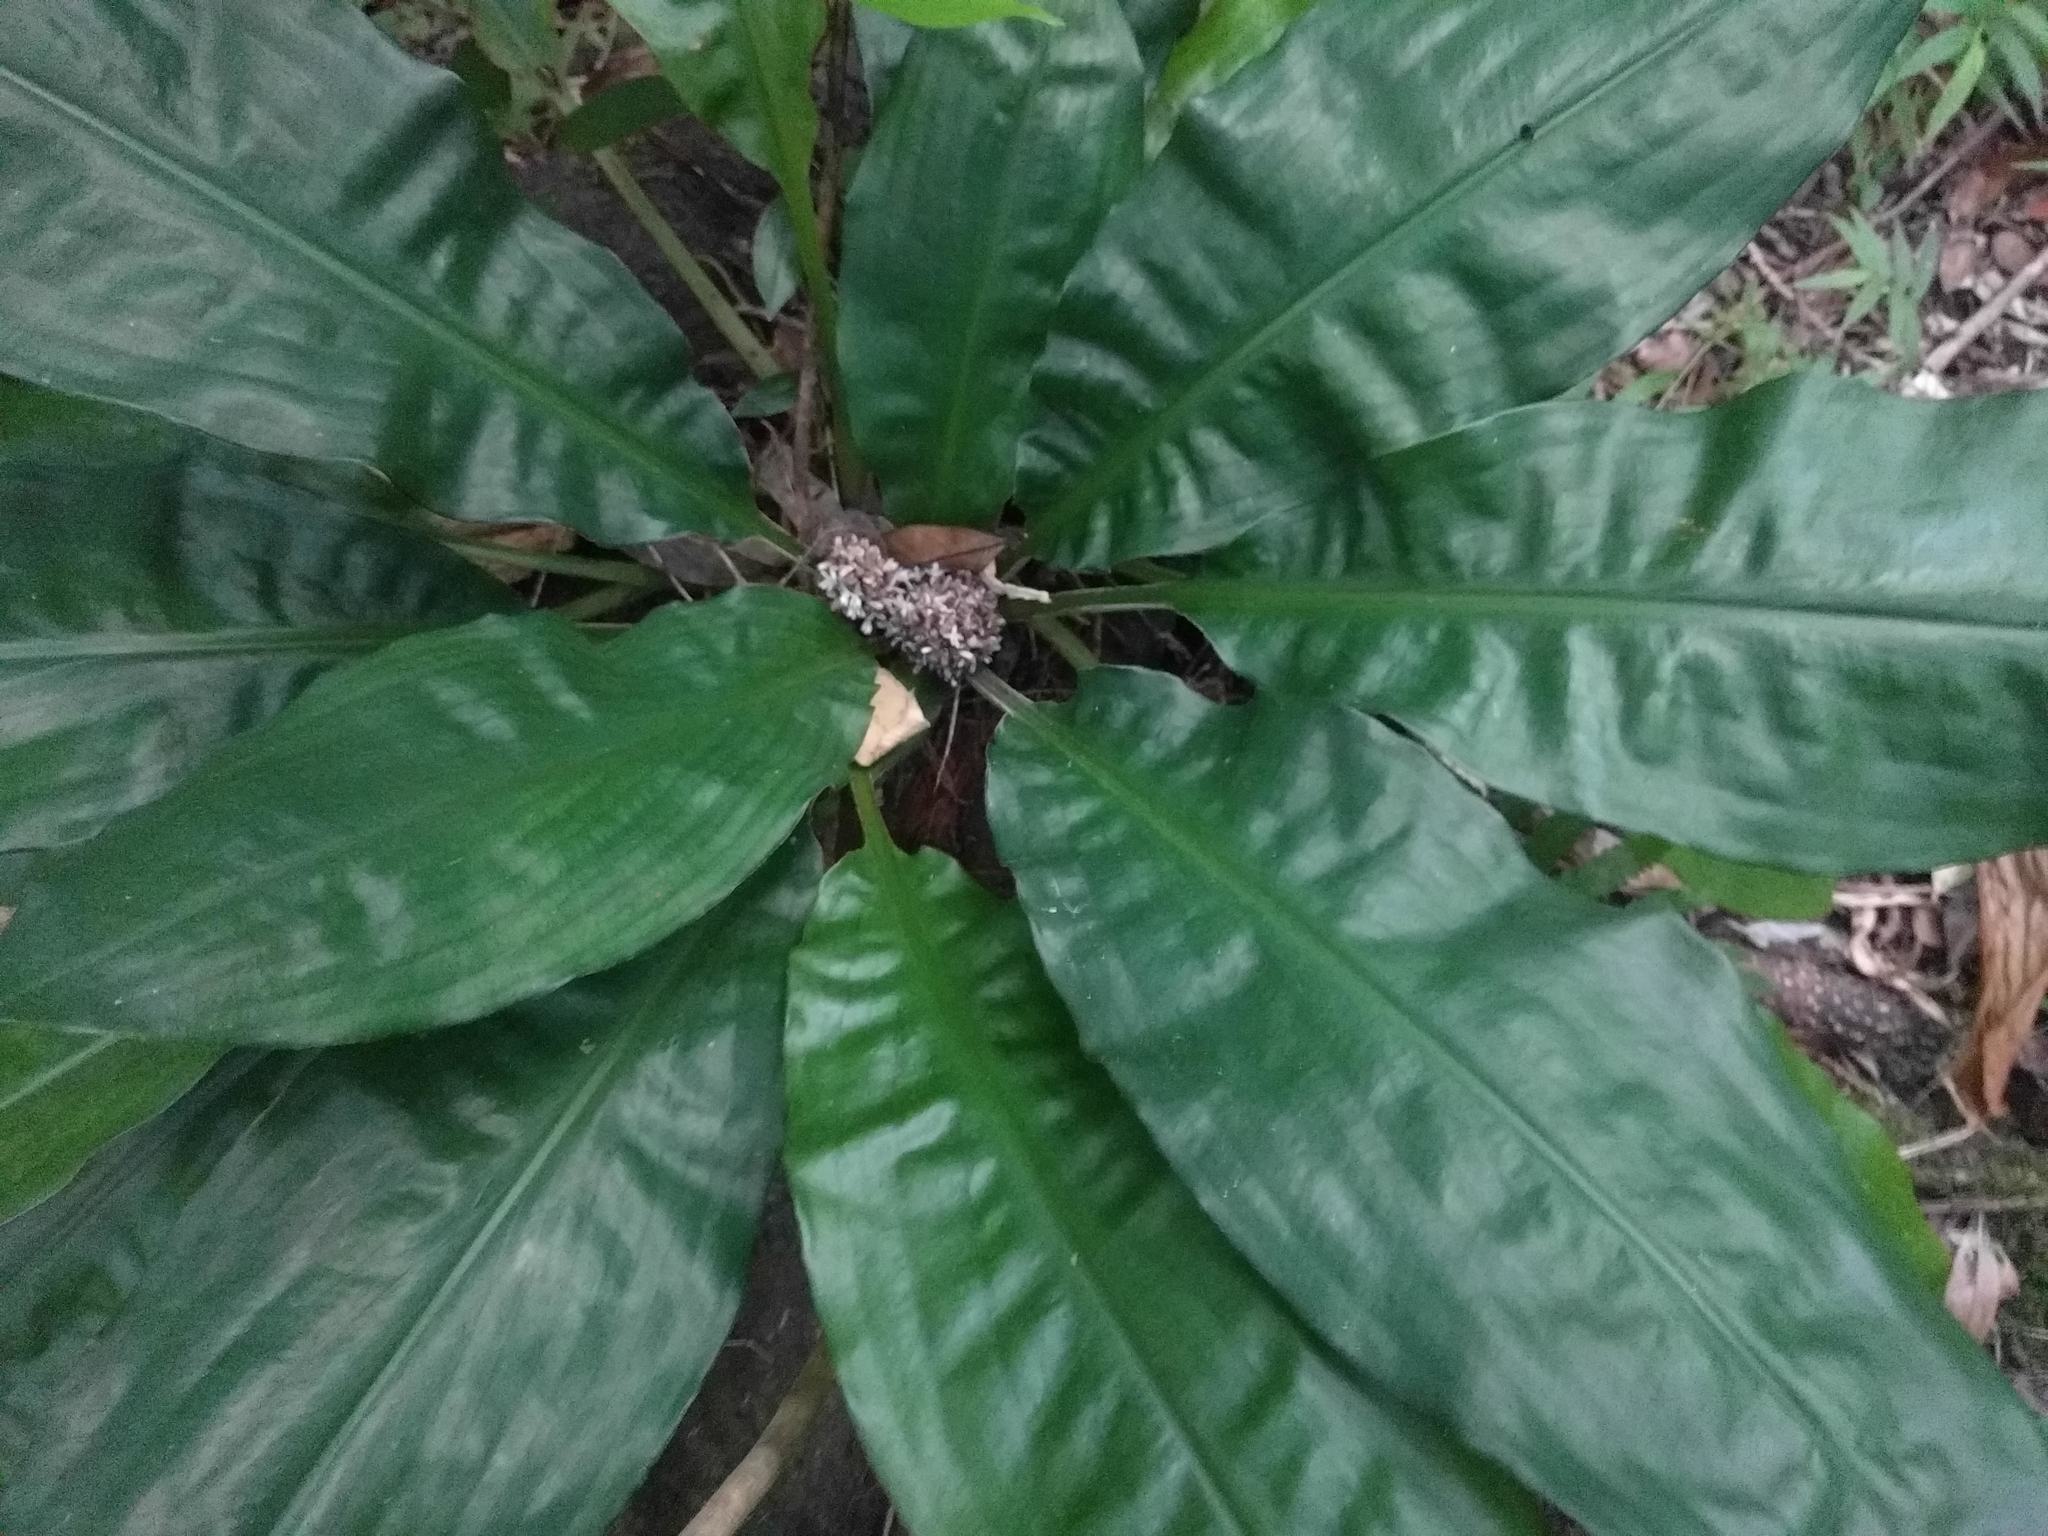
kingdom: Plantae
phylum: Tracheophyta
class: Liliopsida
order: Commelinales
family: Commelinaceae
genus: Palisota
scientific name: Palisota bracteosa
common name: Palisota
